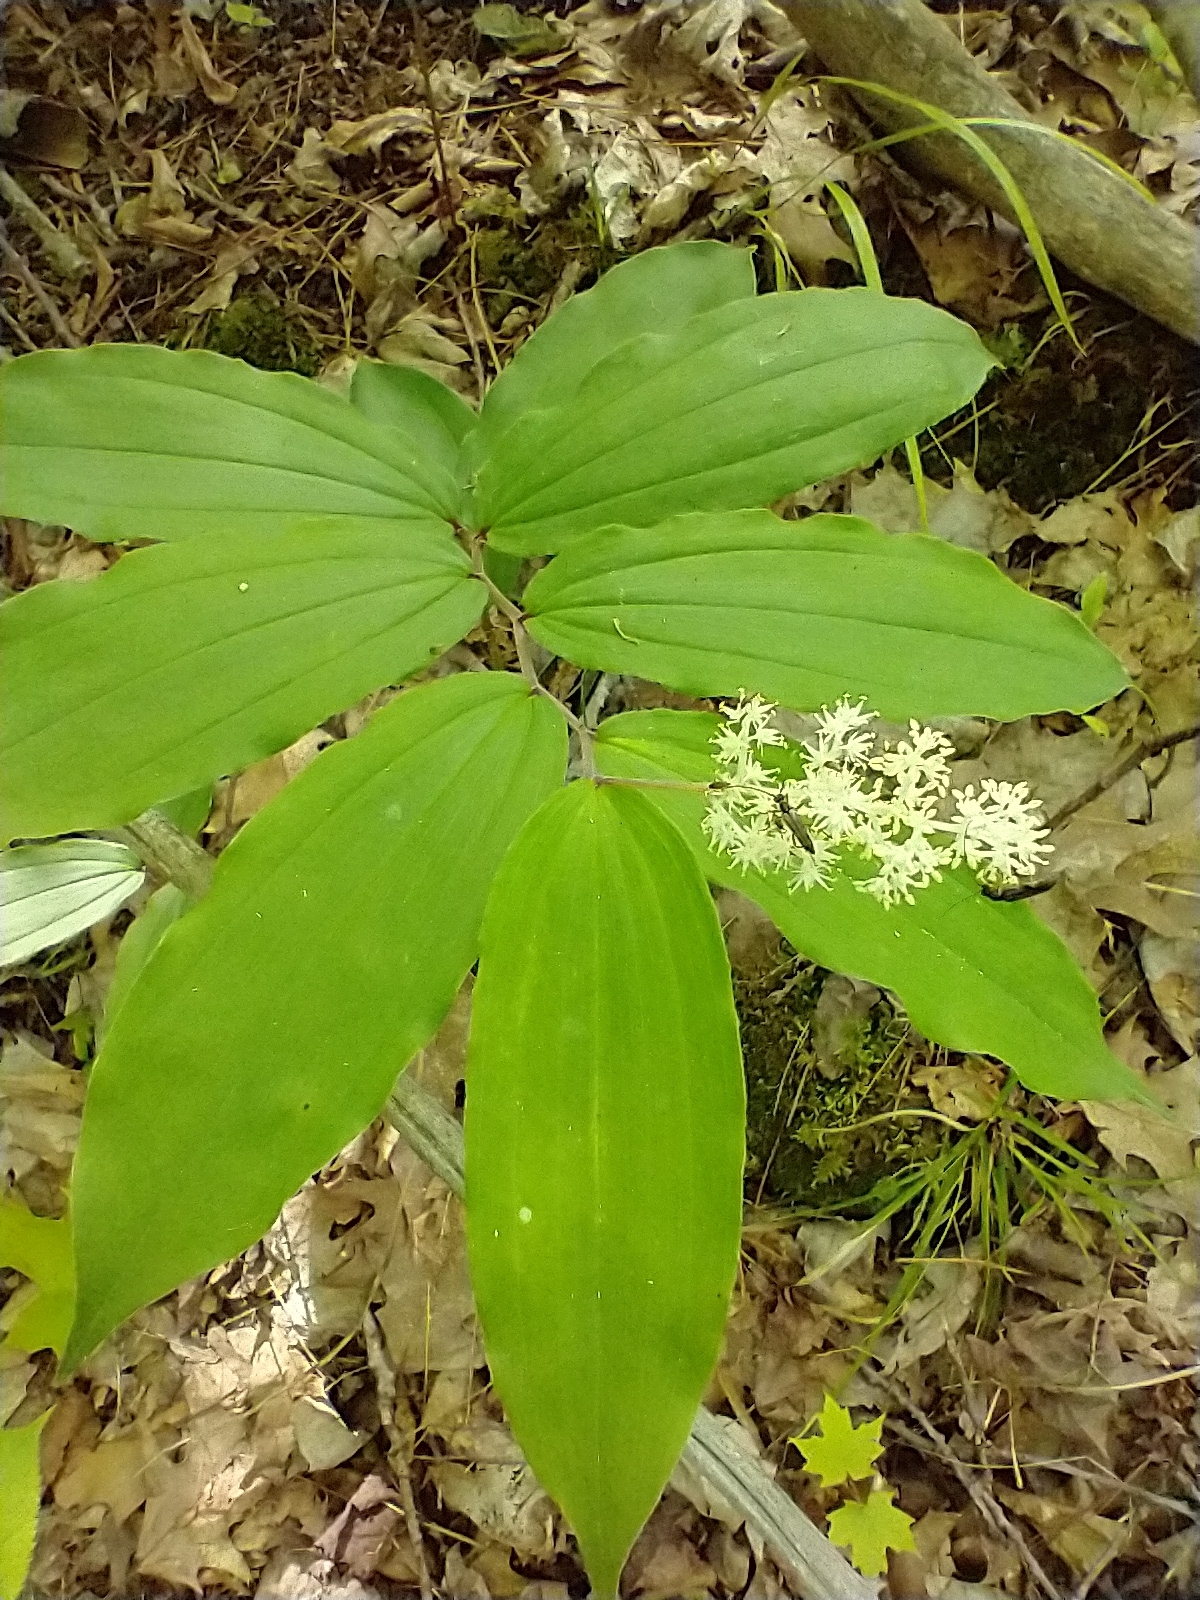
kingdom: Plantae
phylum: Tracheophyta
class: Liliopsida
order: Asparagales
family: Asparagaceae
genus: Maianthemum
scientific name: Maianthemum racemosum
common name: False spikenard
